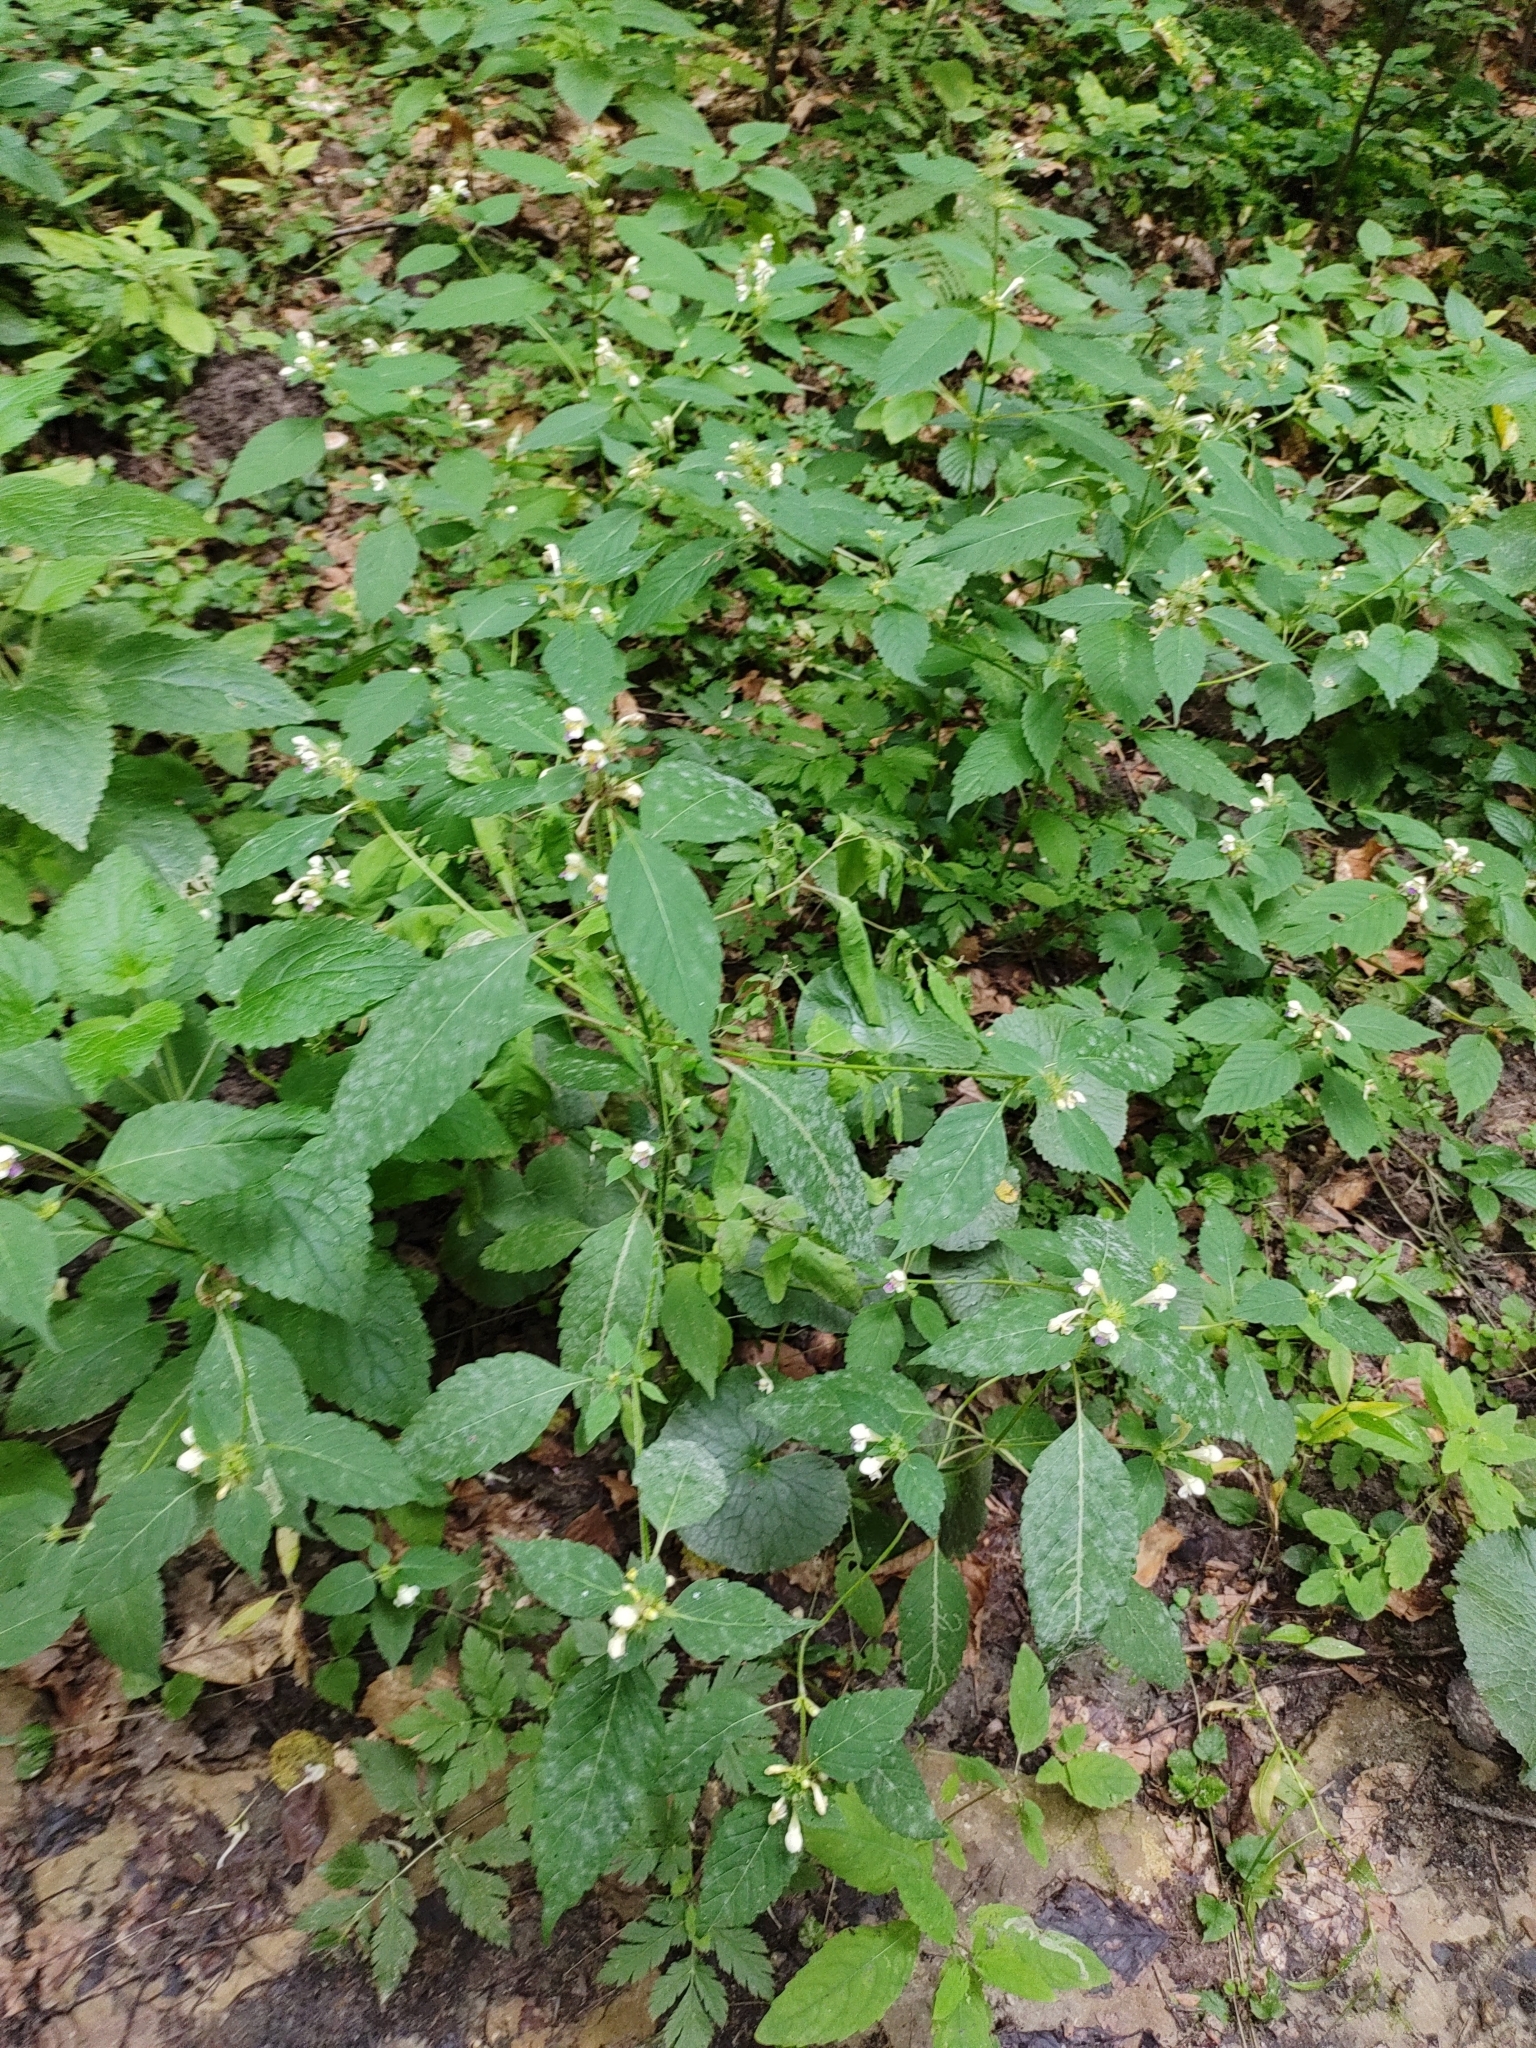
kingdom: Plantae
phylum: Tracheophyta
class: Magnoliopsida
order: Lamiales
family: Lamiaceae
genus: Galeopsis
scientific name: Galeopsis speciosa
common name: Large-flowered hemp-nettle
